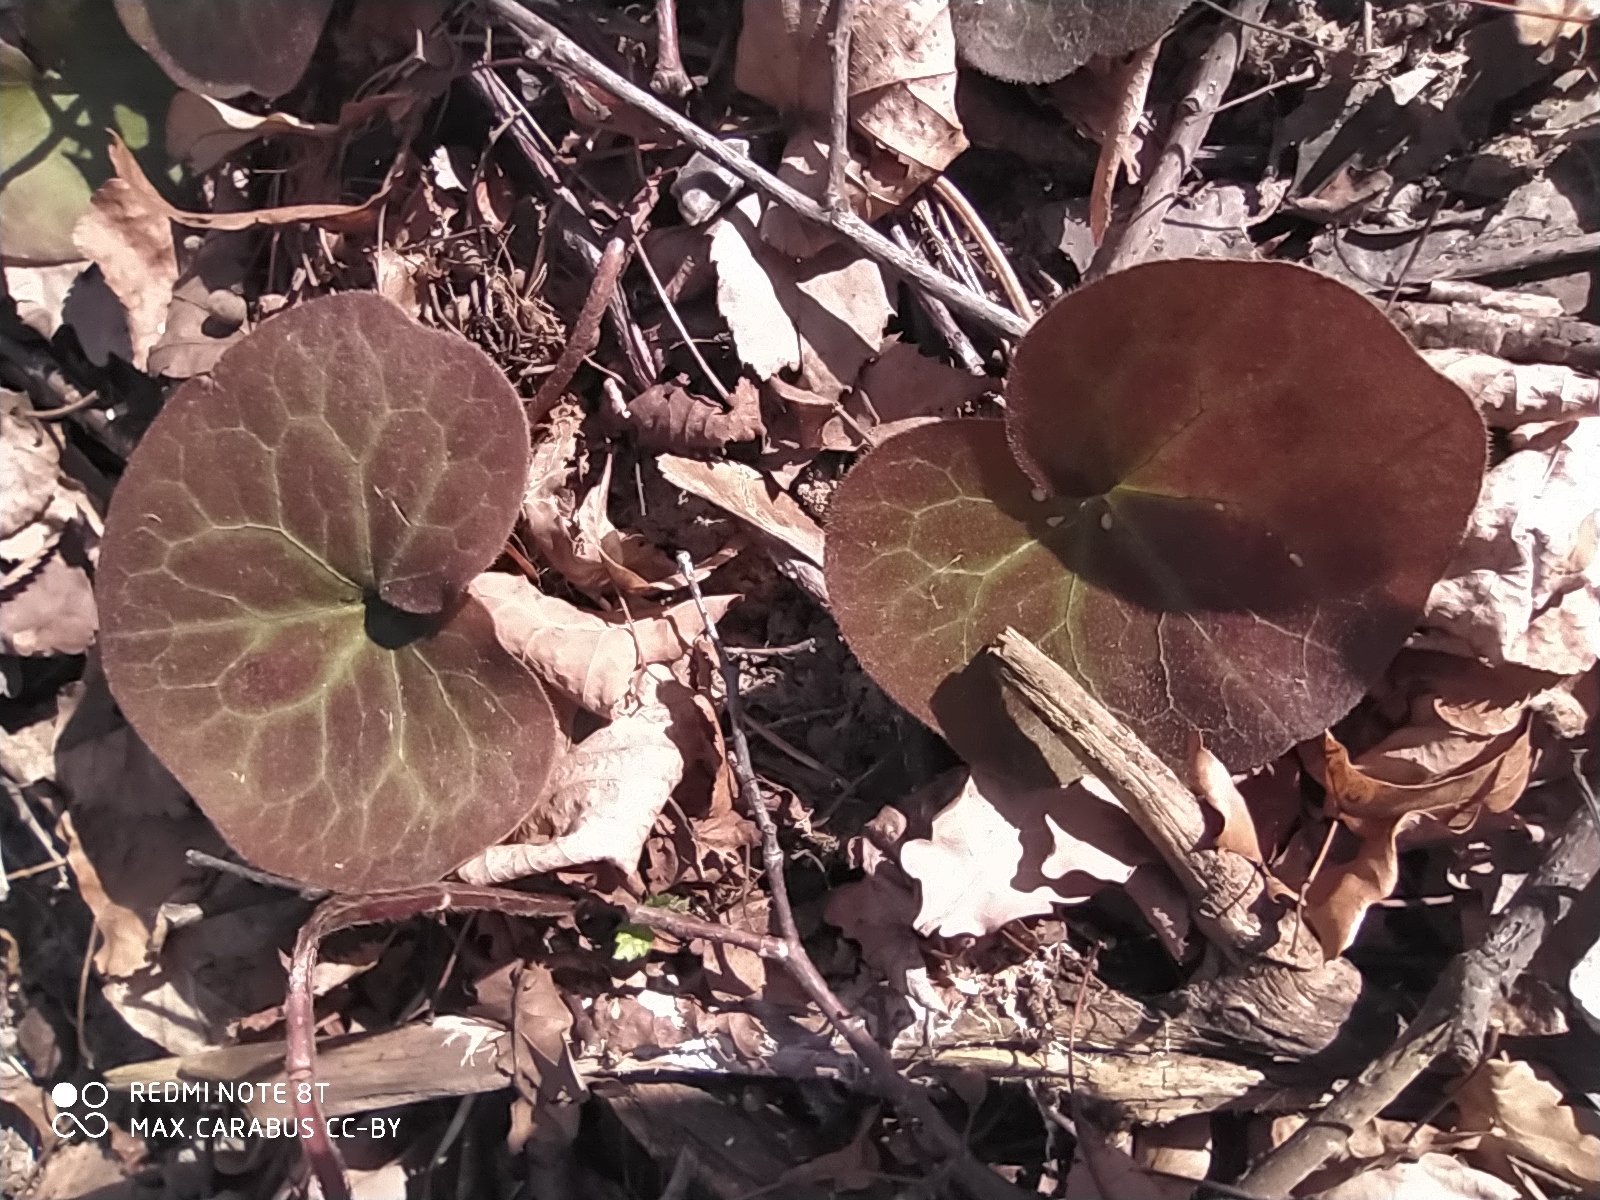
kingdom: Plantae
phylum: Tracheophyta
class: Magnoliopsida
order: Piperales
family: Aristolochiaceae
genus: Asarum
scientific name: Asarum europaeum
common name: Asarabacca
